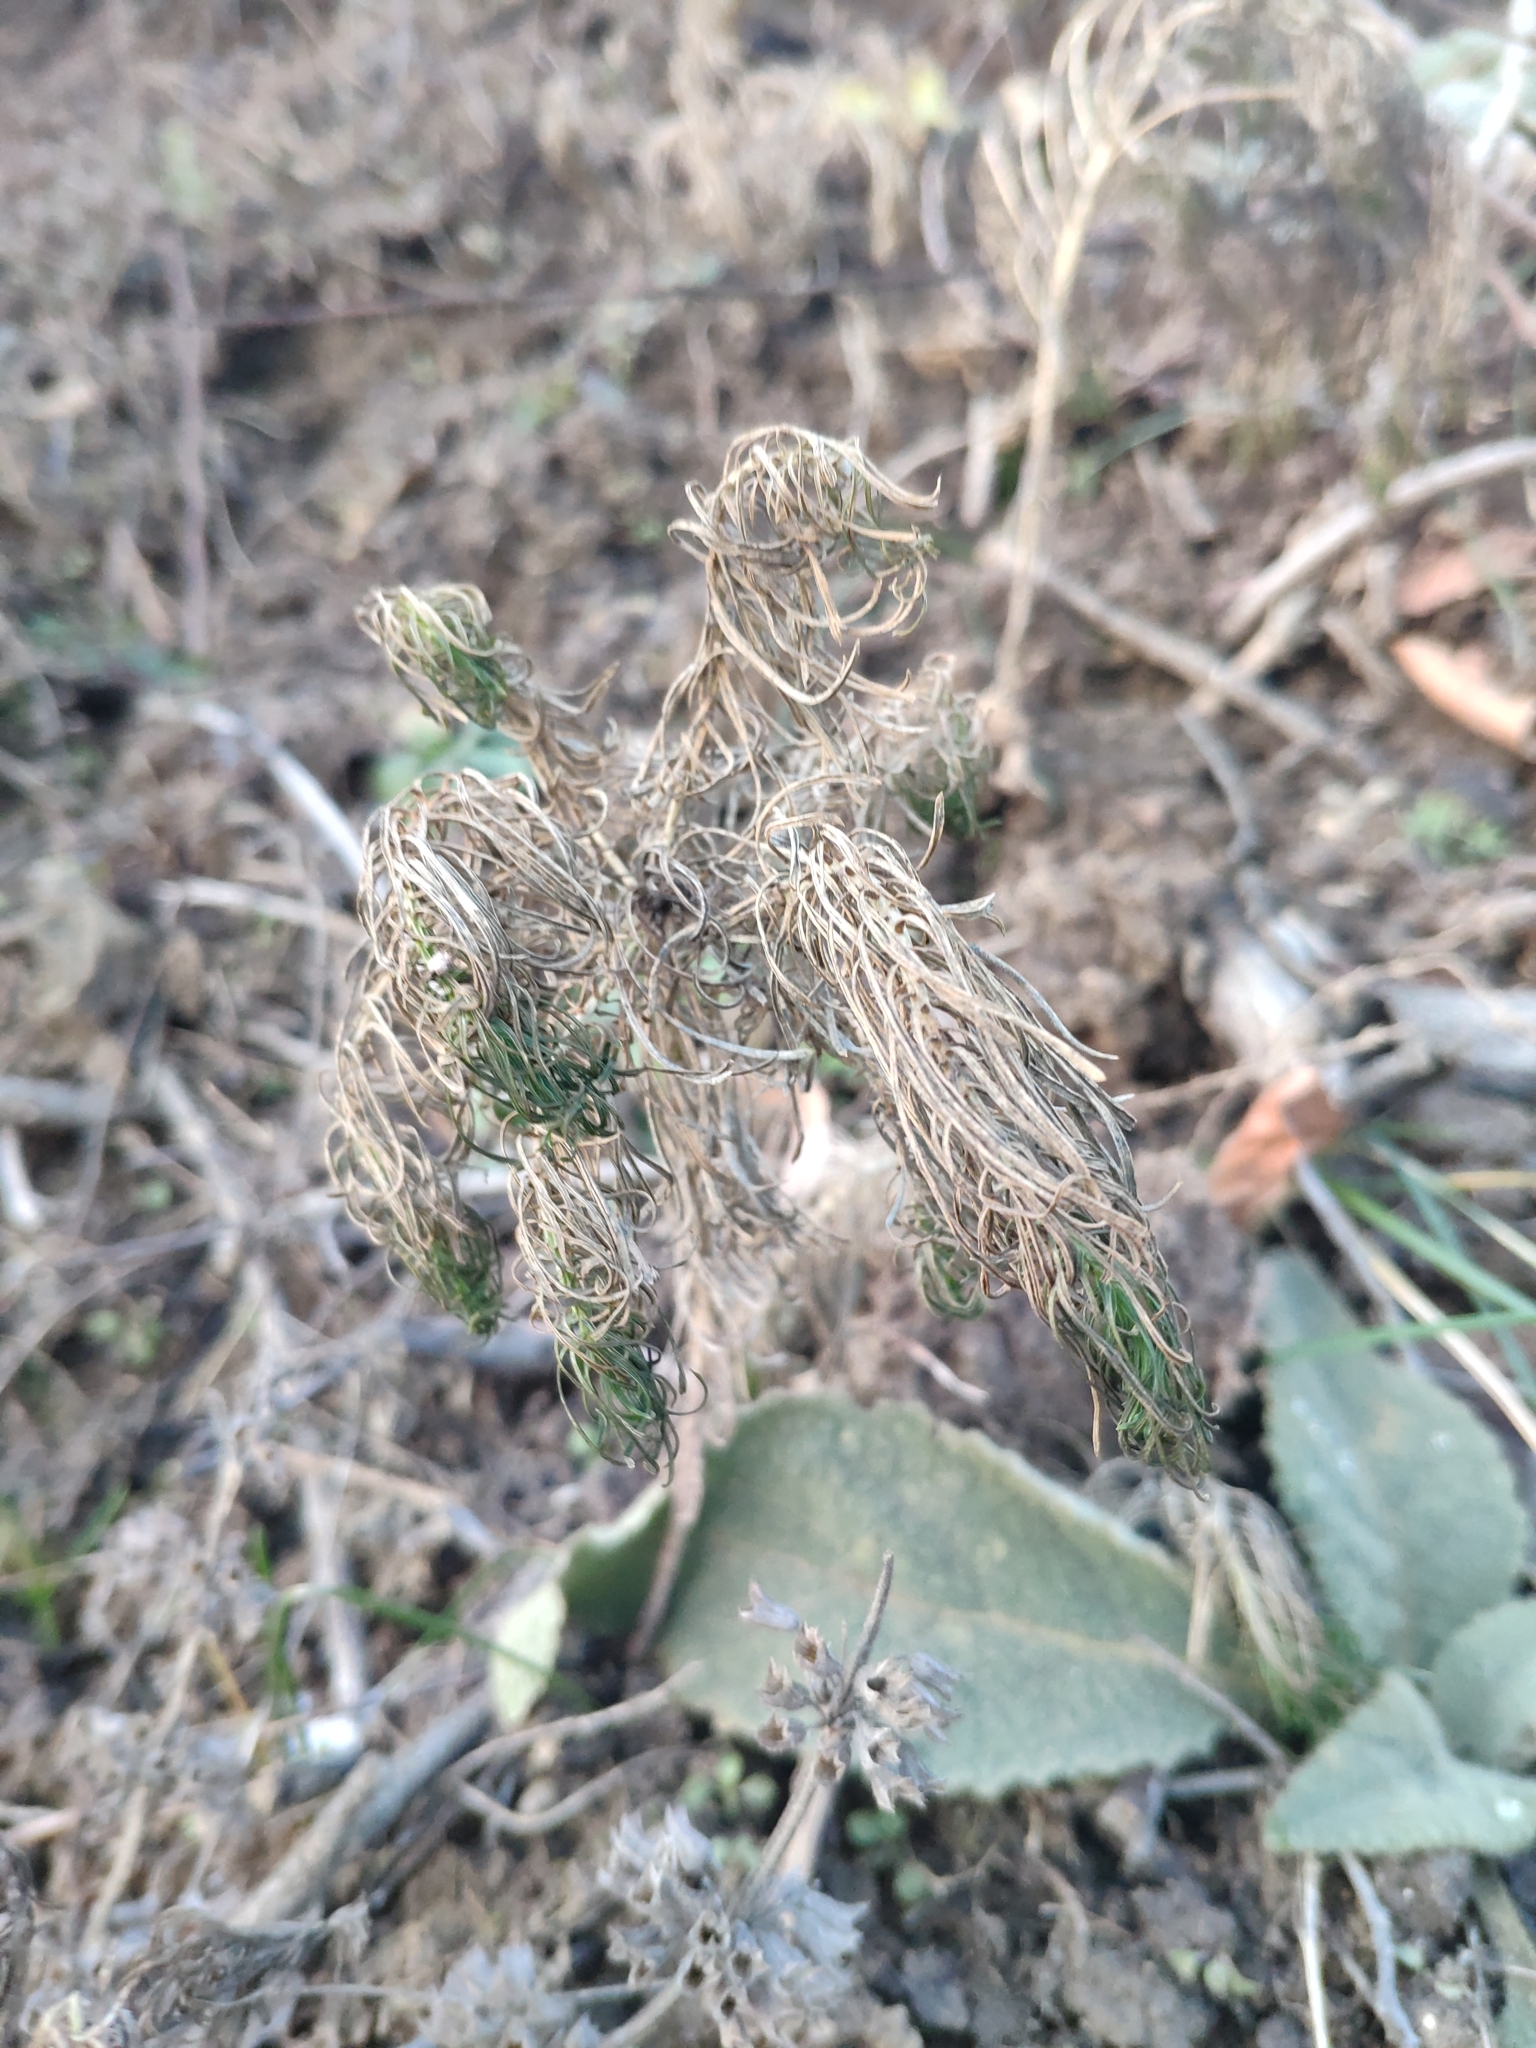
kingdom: Plantae
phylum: Tracheophyta
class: Magnoliopsida
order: Malpighiales
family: Euphorbiaceae
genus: Euphorbia
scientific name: Euphorbia cyparissias
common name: Cypress spurge
